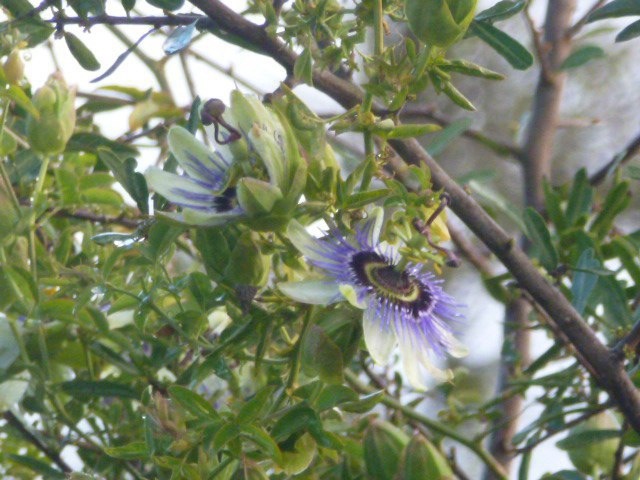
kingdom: Plantae
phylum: Tracheophyta
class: Magnoliopsida
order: Malpighiales
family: Passifloraceae
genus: Passiflora
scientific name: Passiflora caerulea
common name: Blue passionflower
